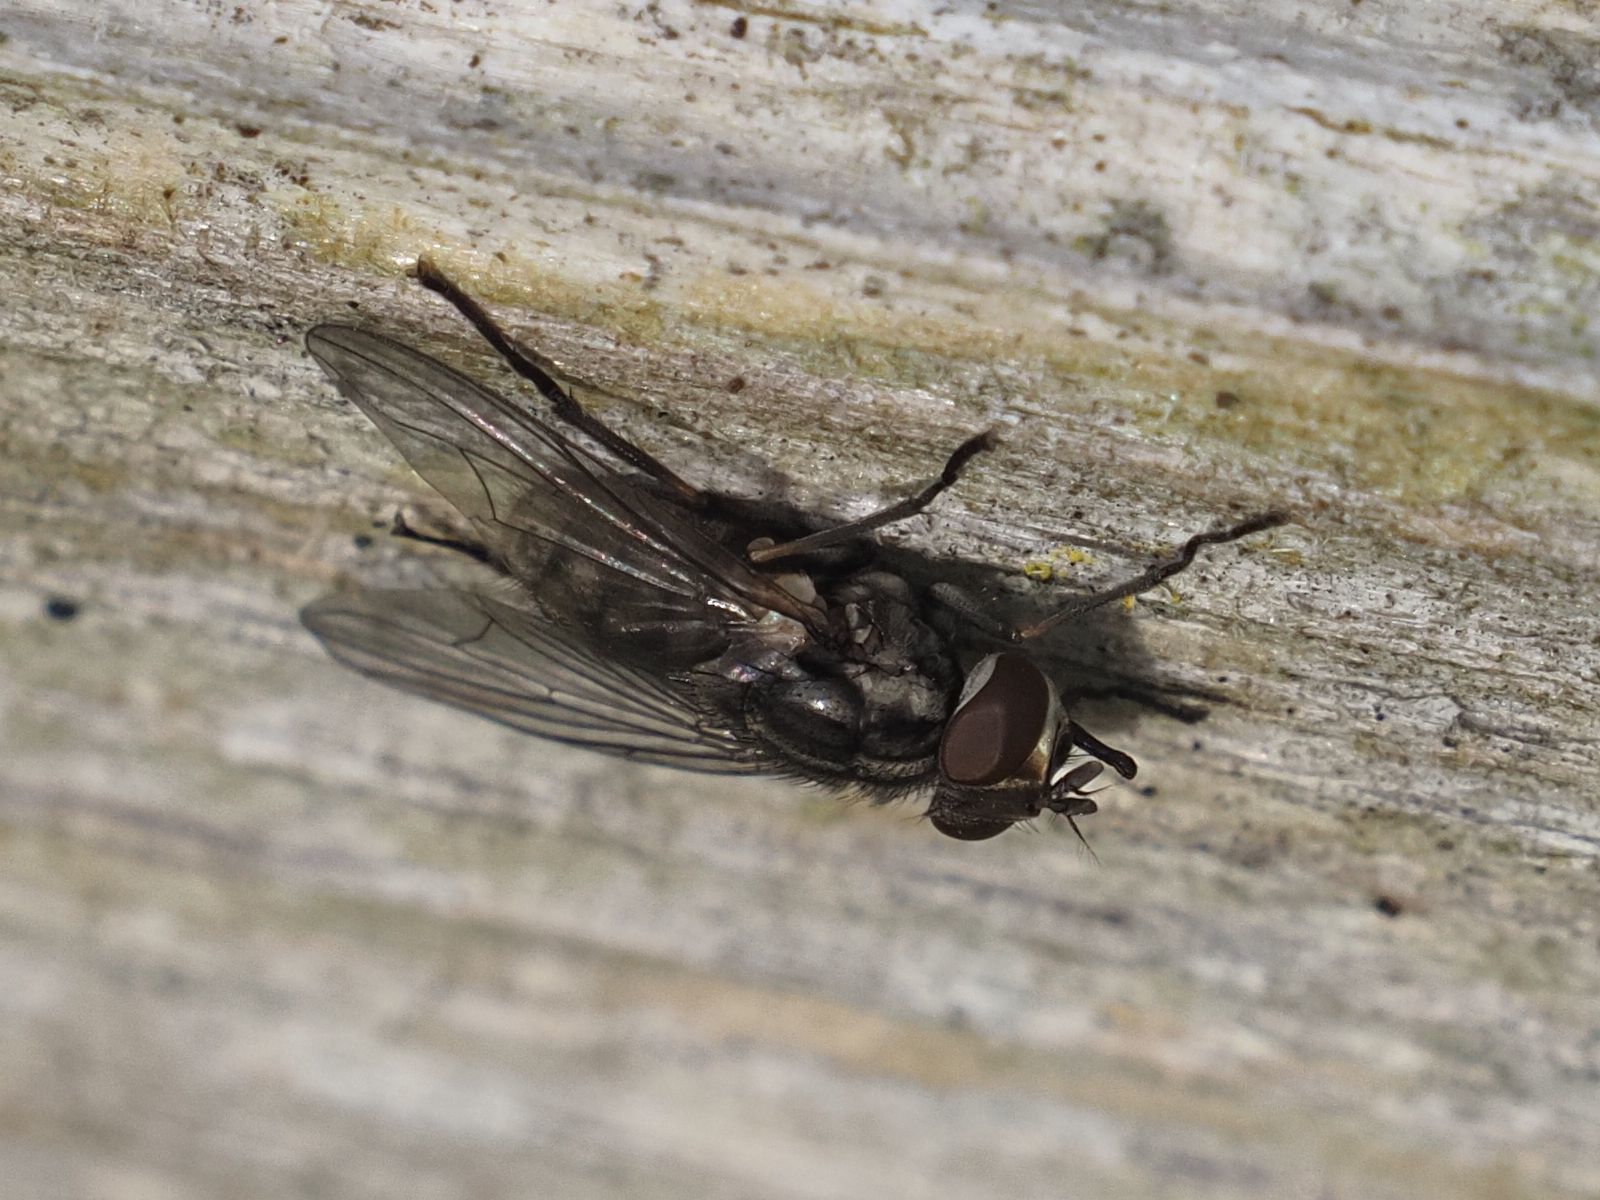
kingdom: Animalia
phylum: Arthropoda
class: Insecta
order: Diptera
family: Muscidae
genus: Stomoxys
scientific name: Stomoxys calcitrans
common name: Stable fly
